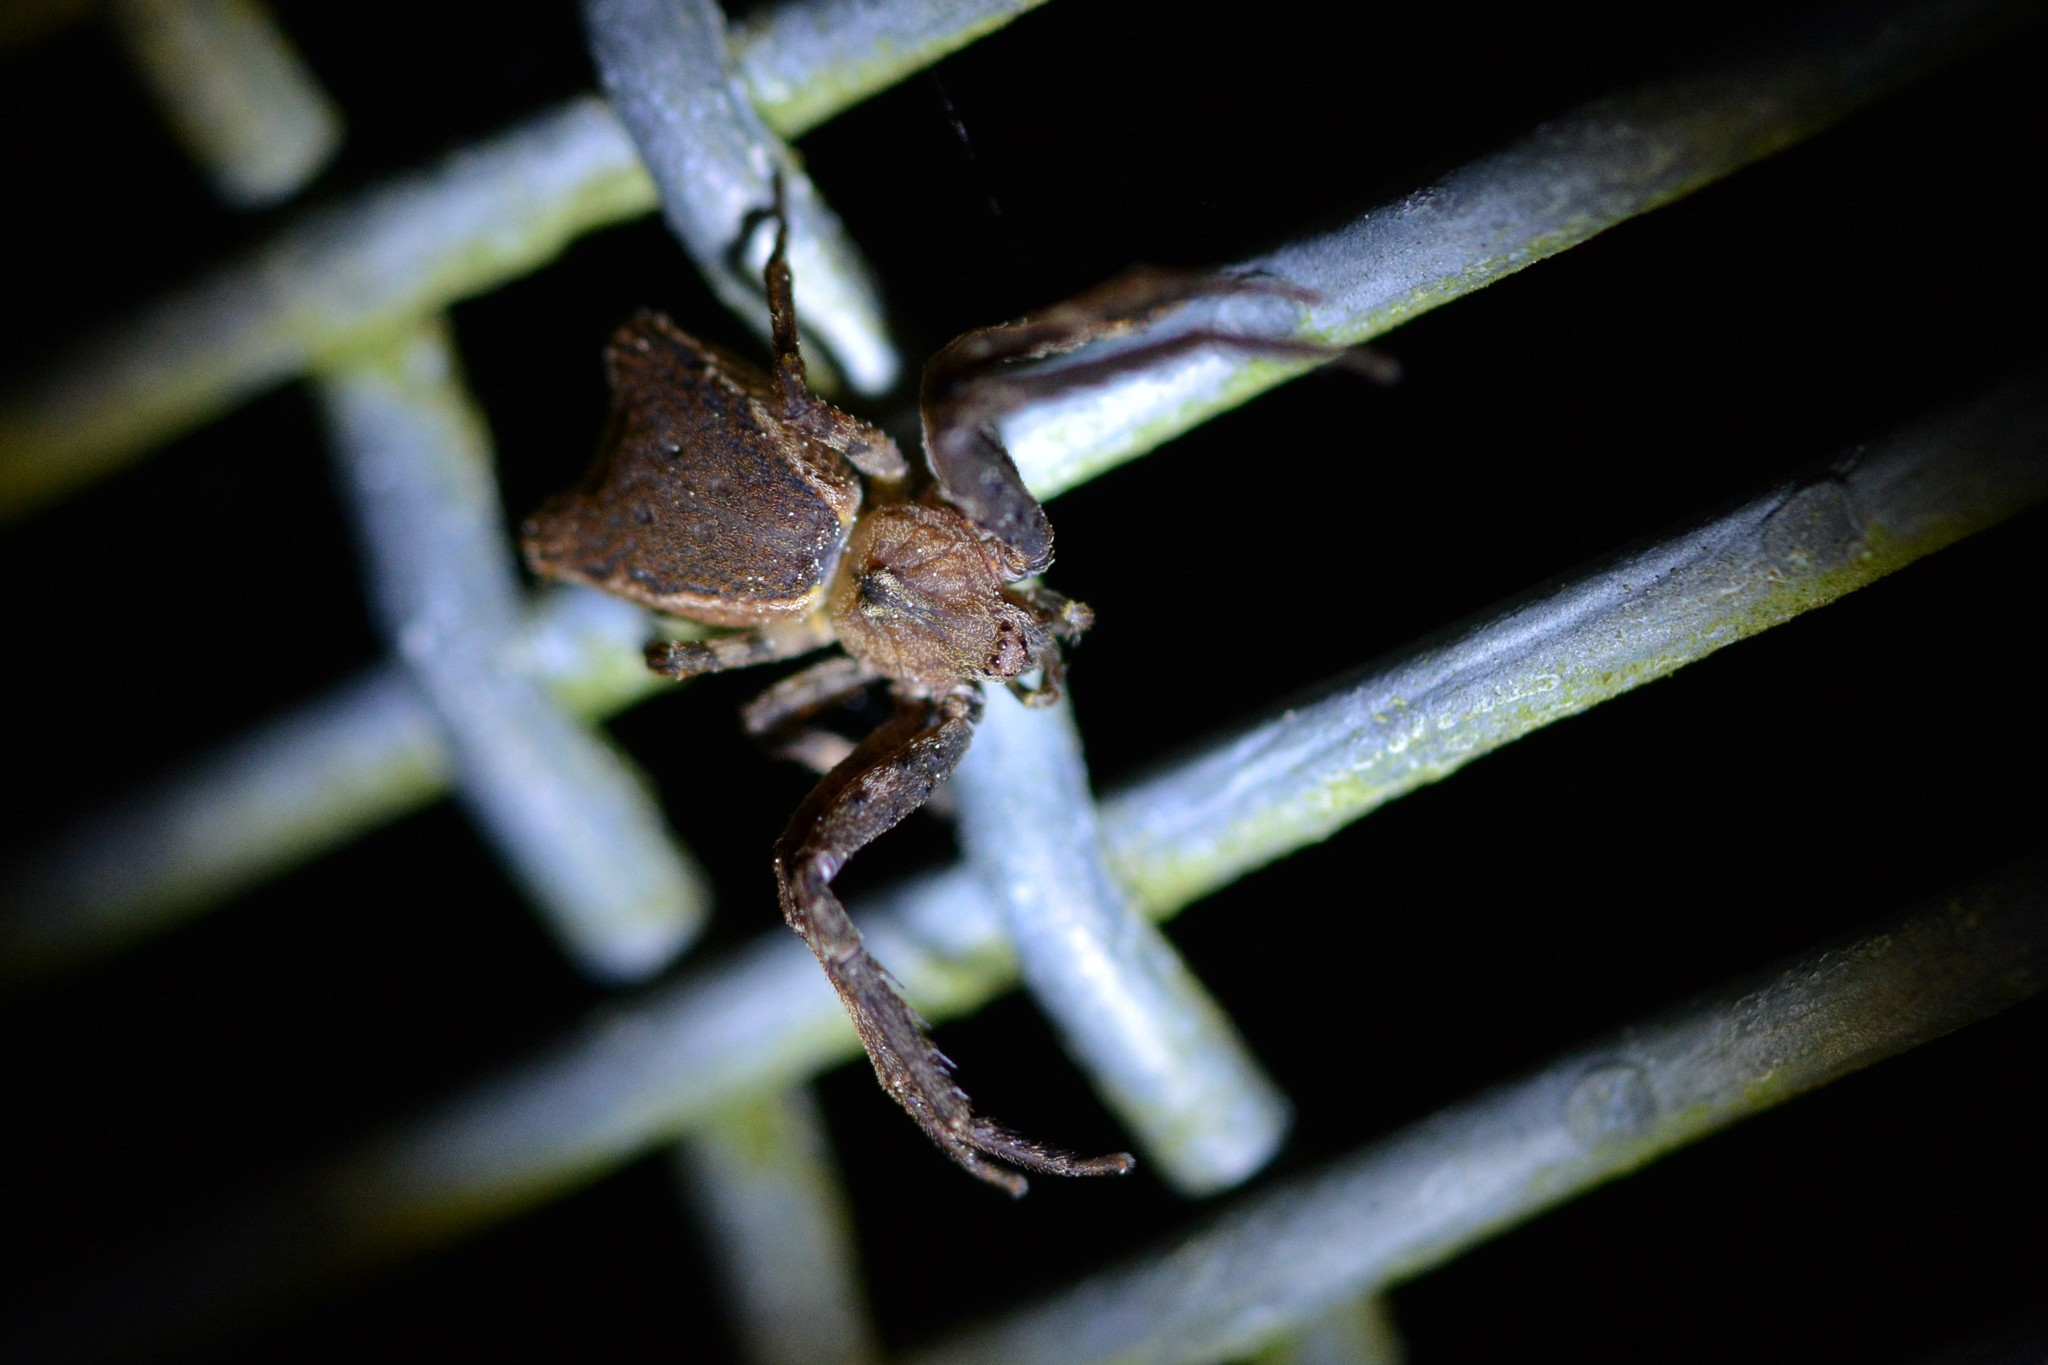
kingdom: Animalia
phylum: Arthropoda
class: Arachnida
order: Araneae
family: Thomisidae
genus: Sidymella
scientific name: Sidymella angularis
